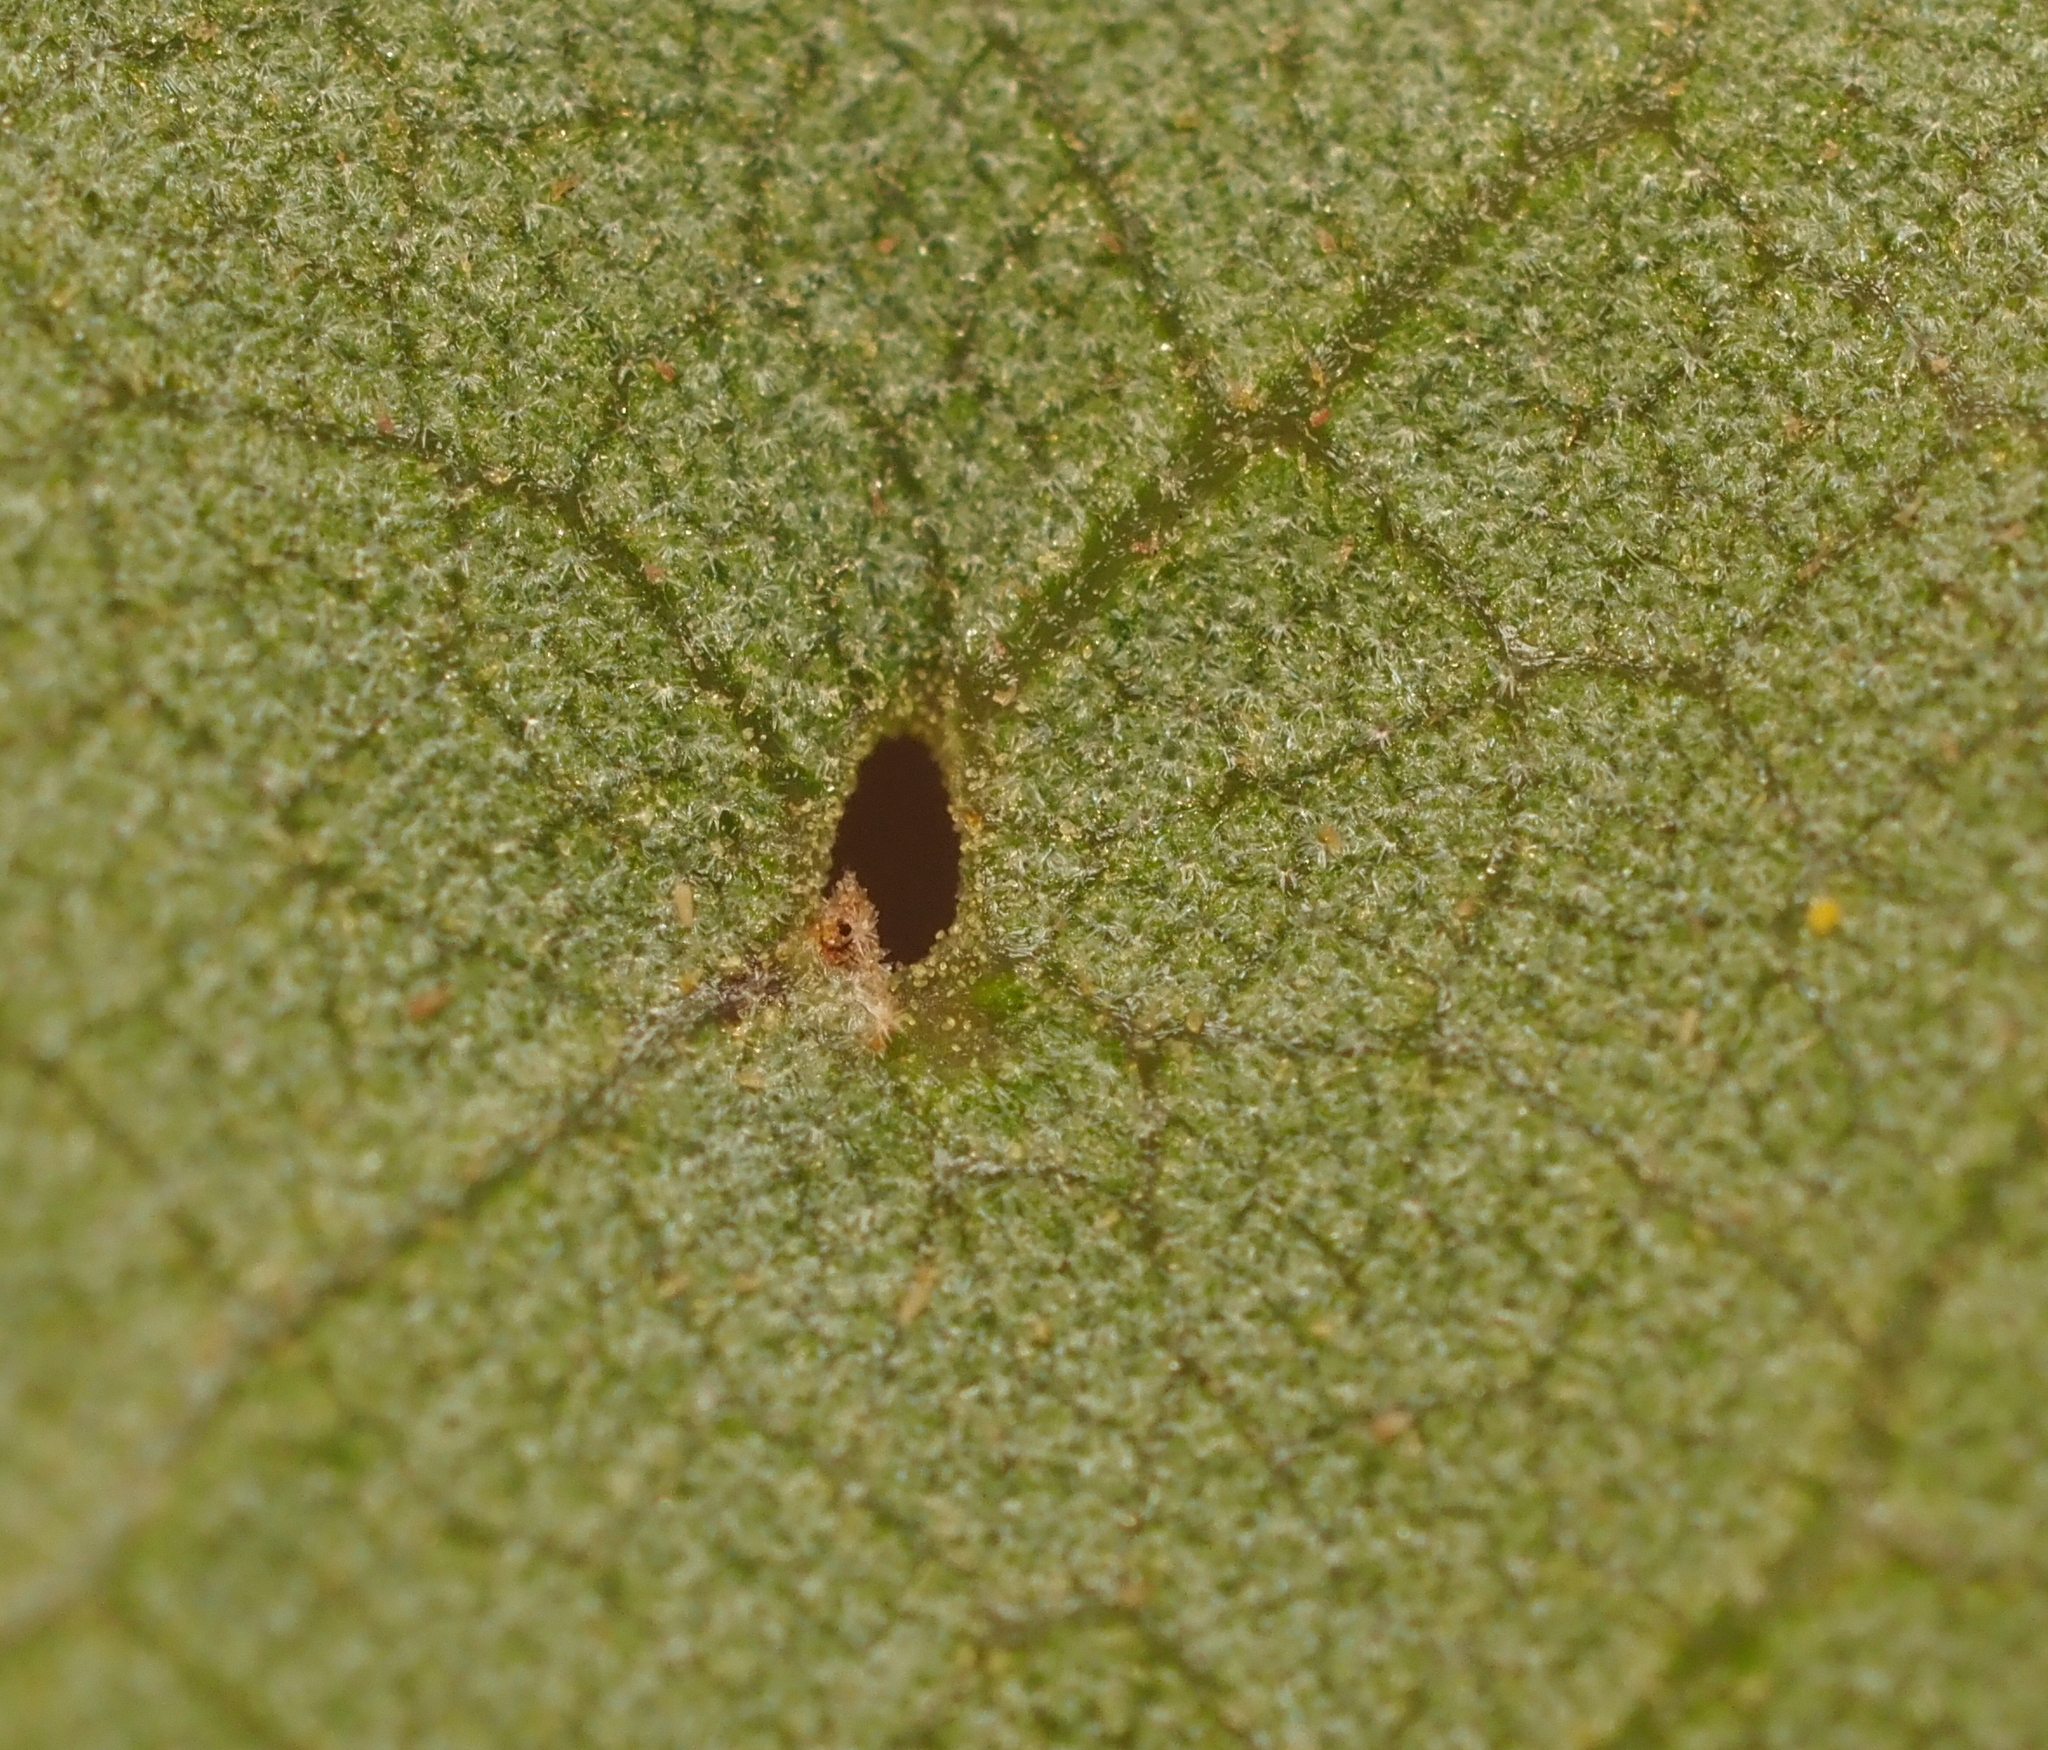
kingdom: Animalia
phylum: Arthropoda
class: Insecta
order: Hymenoptera
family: Cynipidae
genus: Belonocnema
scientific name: Belonocnema kinseyi
